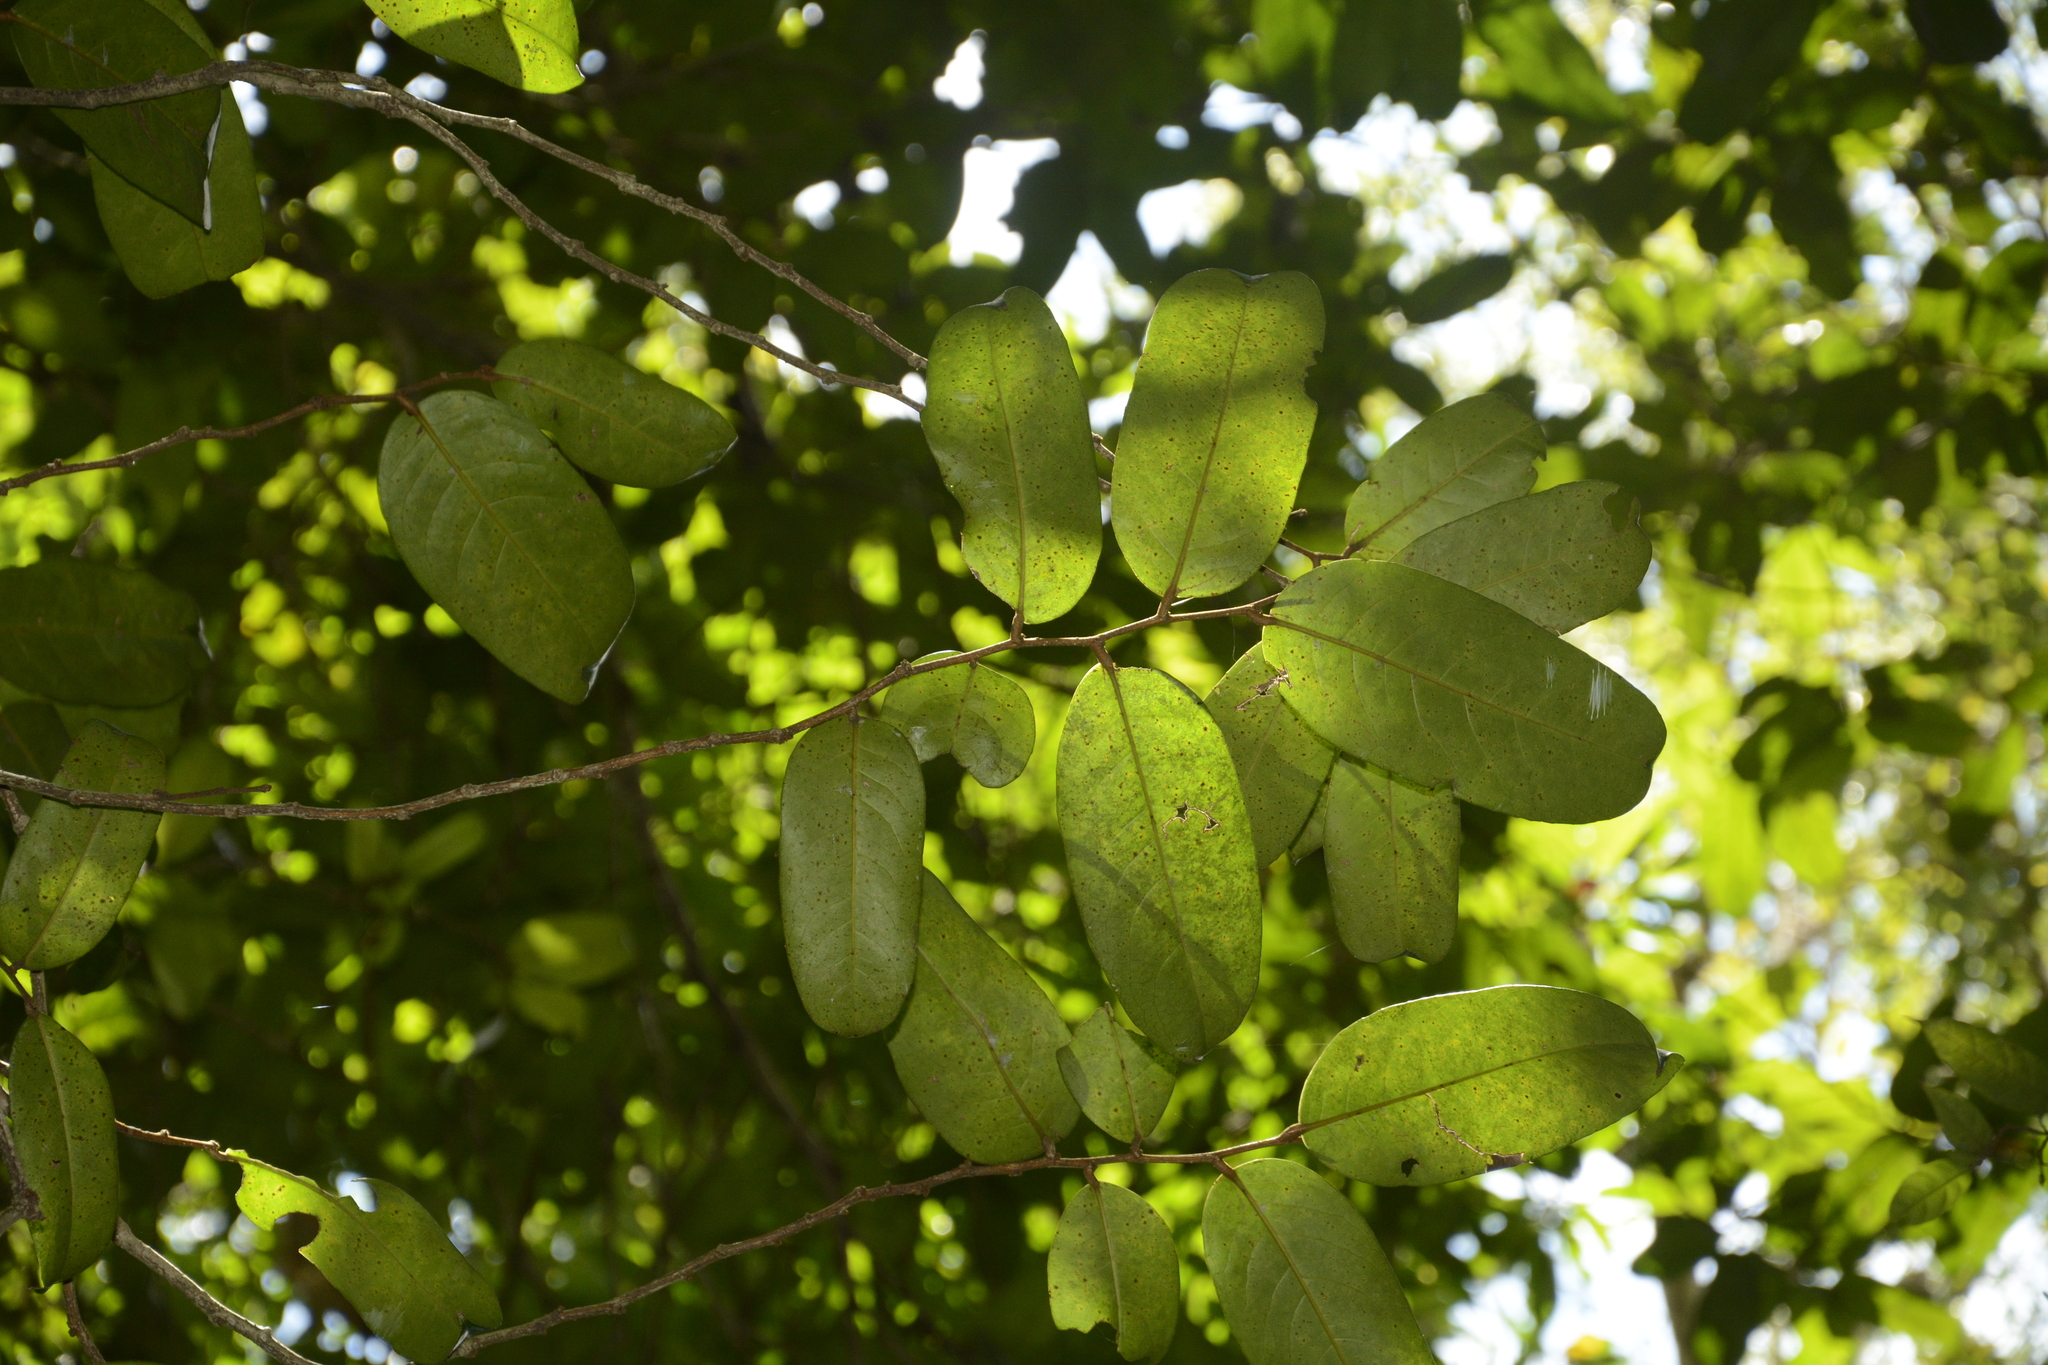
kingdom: Plantae
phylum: Tracheophyta
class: Magnoliopsida
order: Malpighiales
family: Putranjivaceae
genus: Drypetes
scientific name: Drypetes oblongifolia
